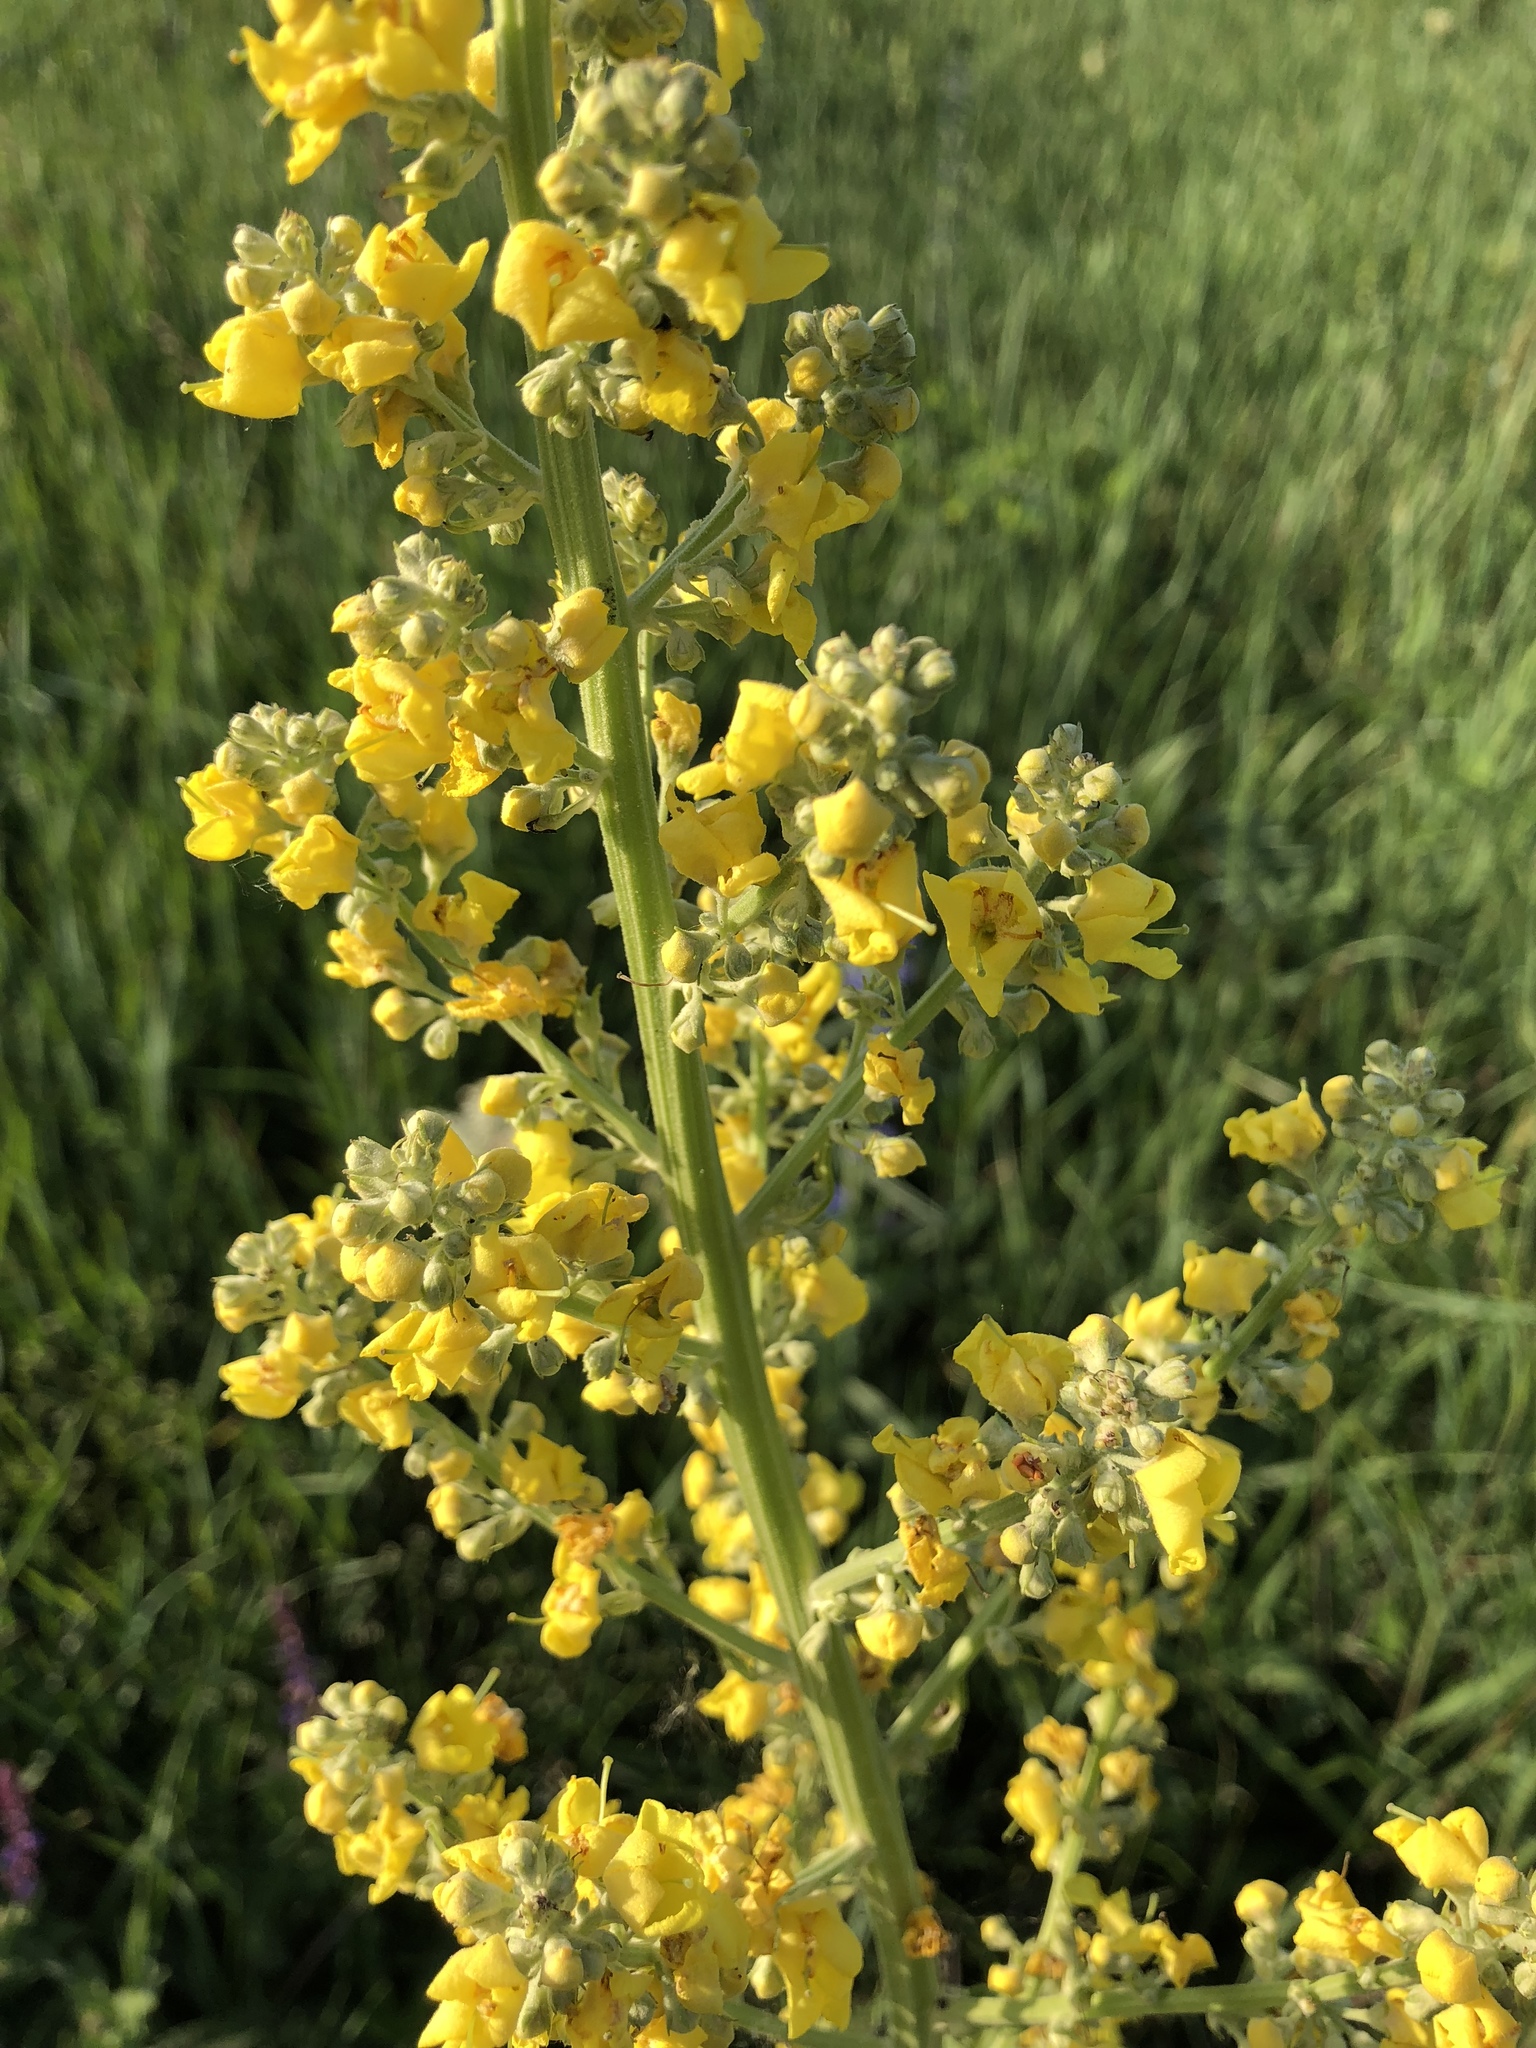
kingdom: Plantae
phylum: Tracheophyta
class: Magnoliopsida
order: Lamiales
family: Scrophulariaceae
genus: Verbascum
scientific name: Verbascum speciosum
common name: Hungarian mullein
